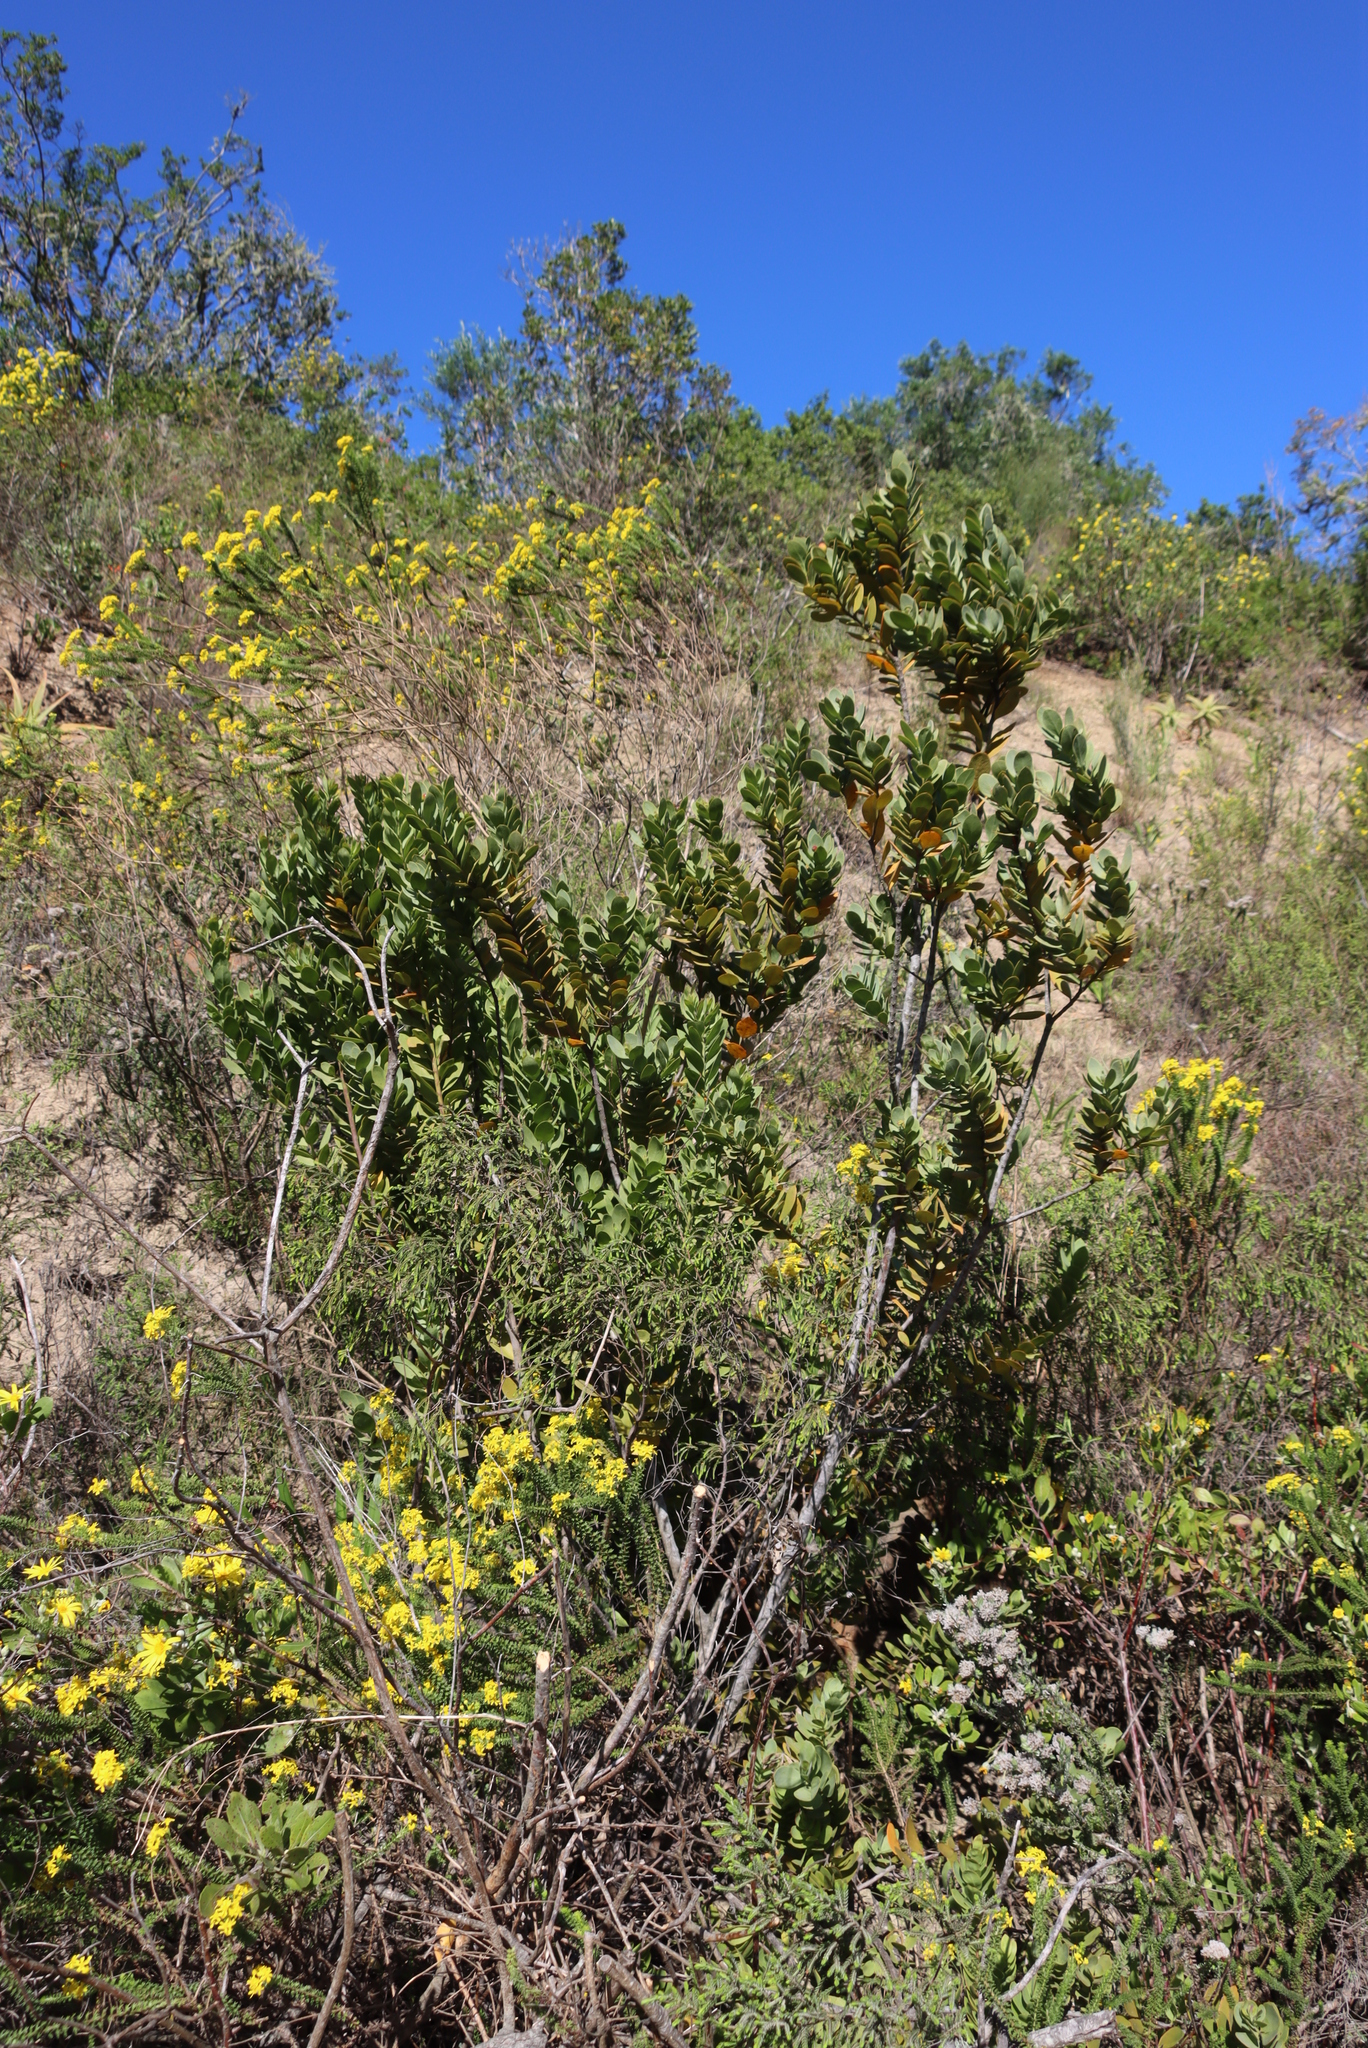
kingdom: Plantae
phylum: Tracheophyta
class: Magnoliopsida
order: Santalales
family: Santalaceae
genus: Osyris
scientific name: Osyris compressa
